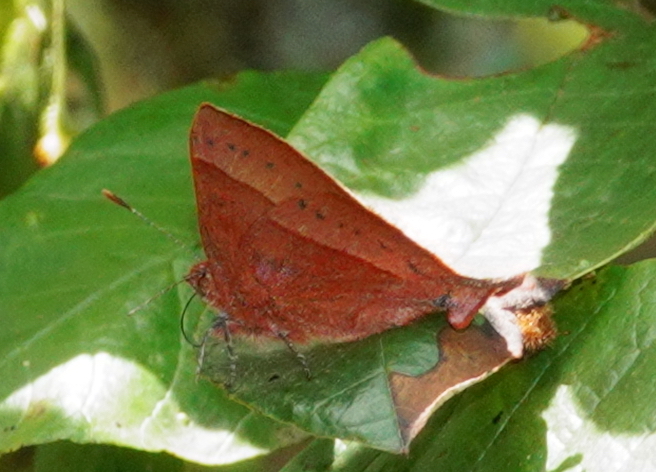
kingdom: Animalia
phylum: Arthropoda
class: Insecta
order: Lepidoptera
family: Lycaenidae
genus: Penaincisalia
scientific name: Penaincisalia loxurina
